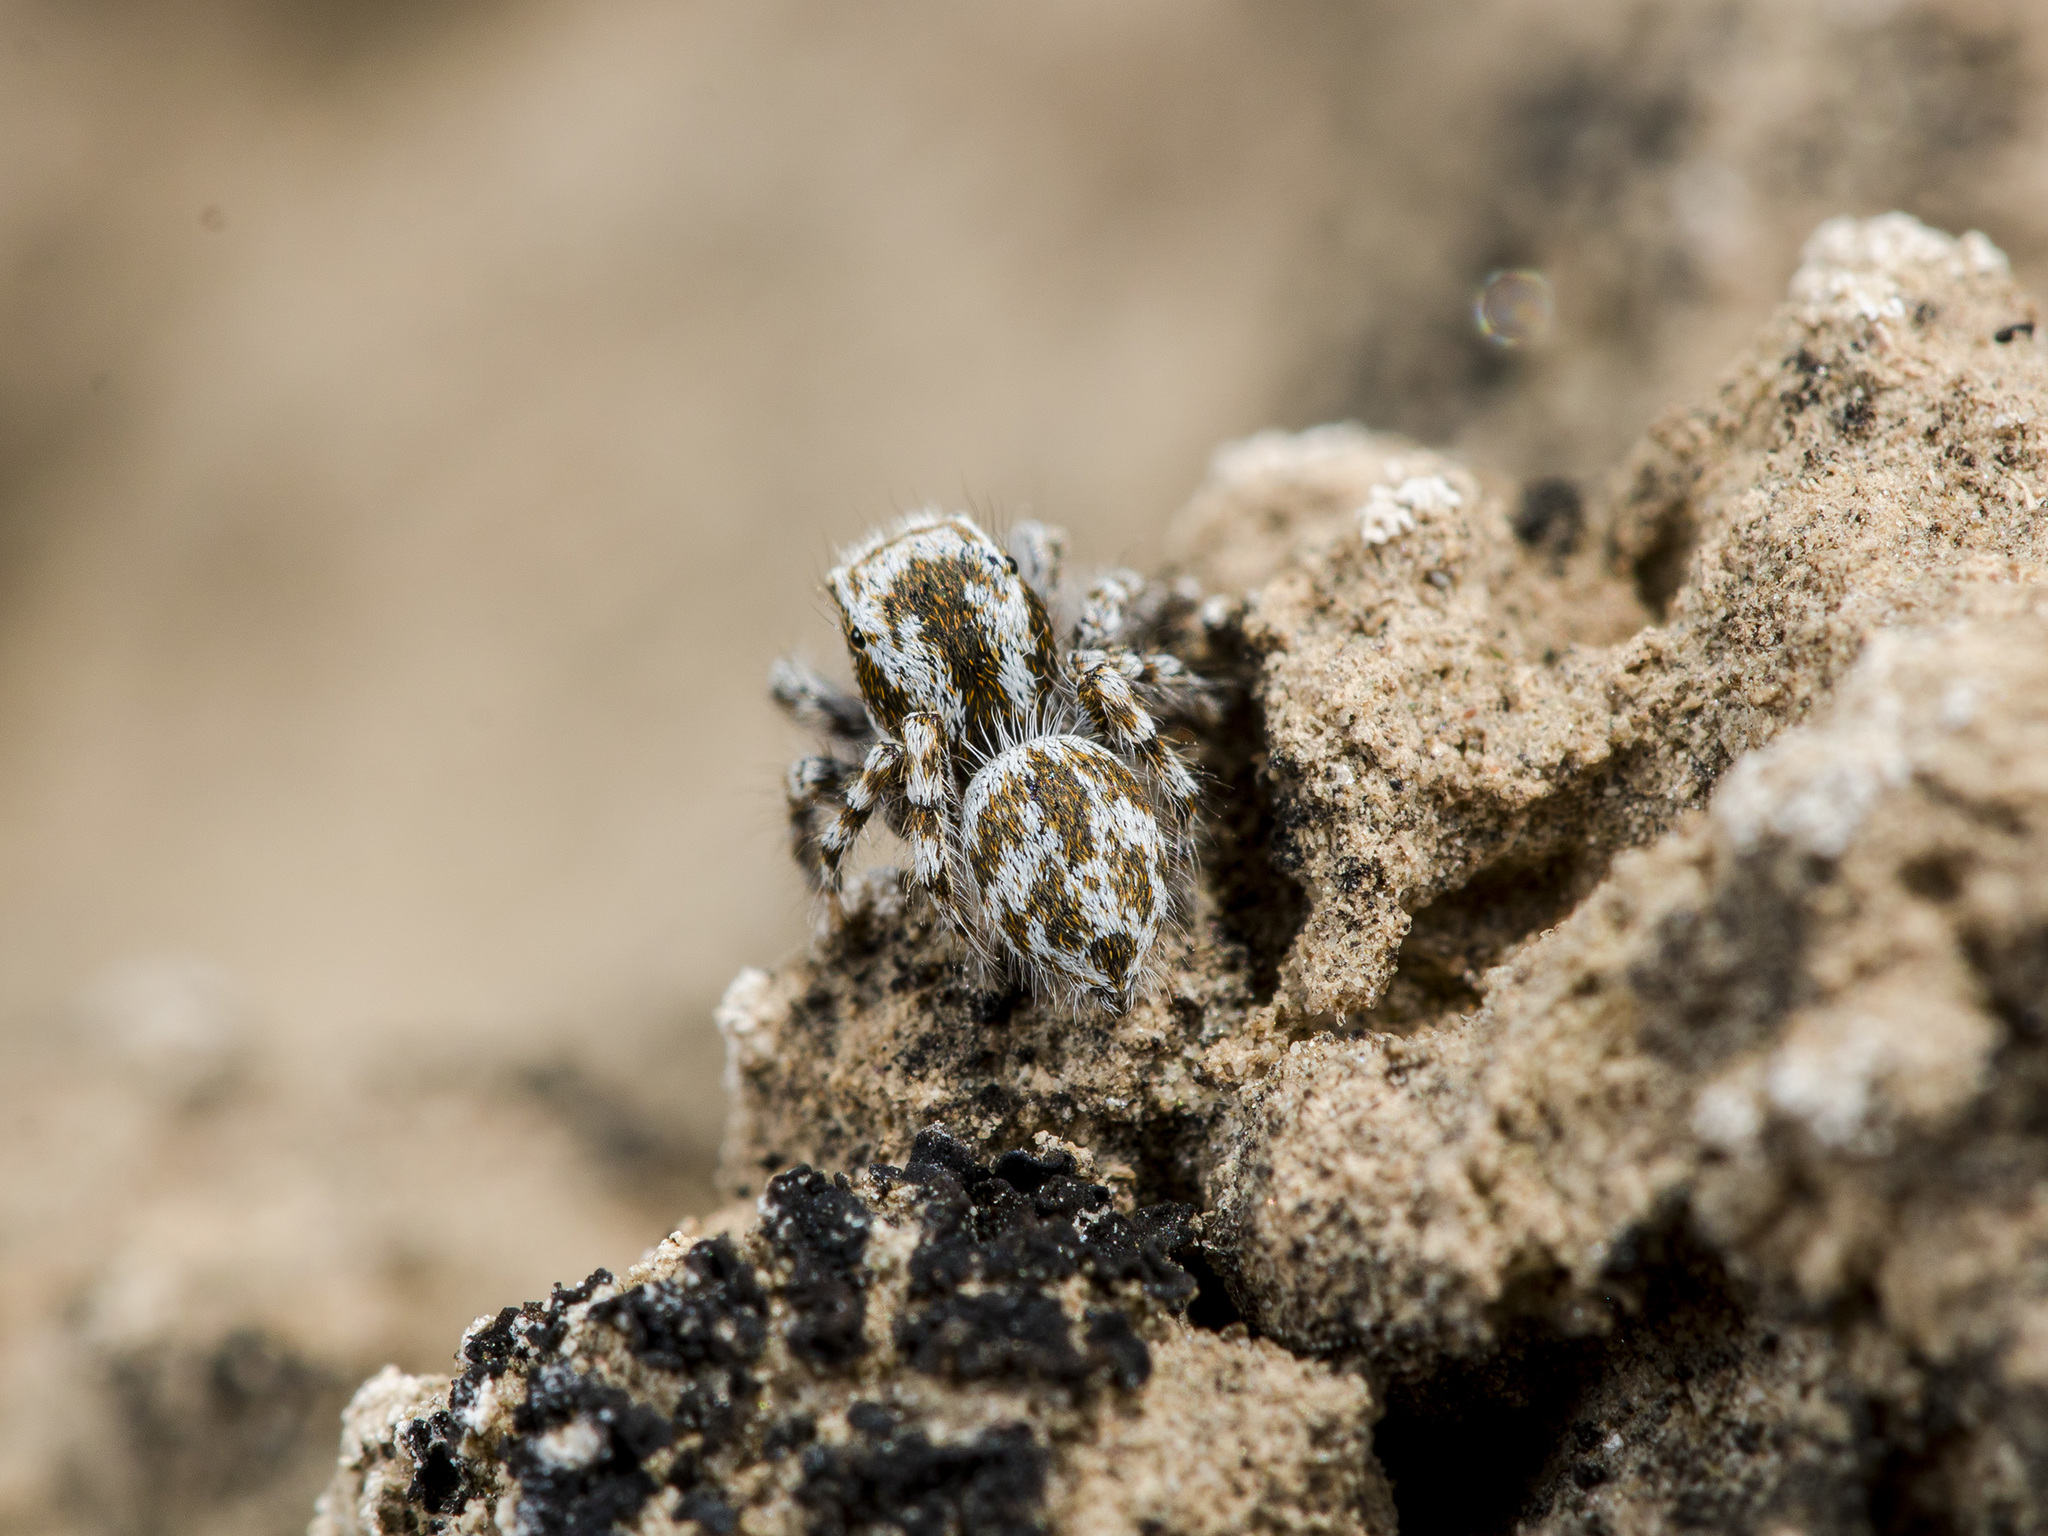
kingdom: Animalia
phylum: Arthropoda
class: Arachnida
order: Araneae
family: Salticidae
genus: Pseudomogrus
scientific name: Pseudomogrus dalaensis
